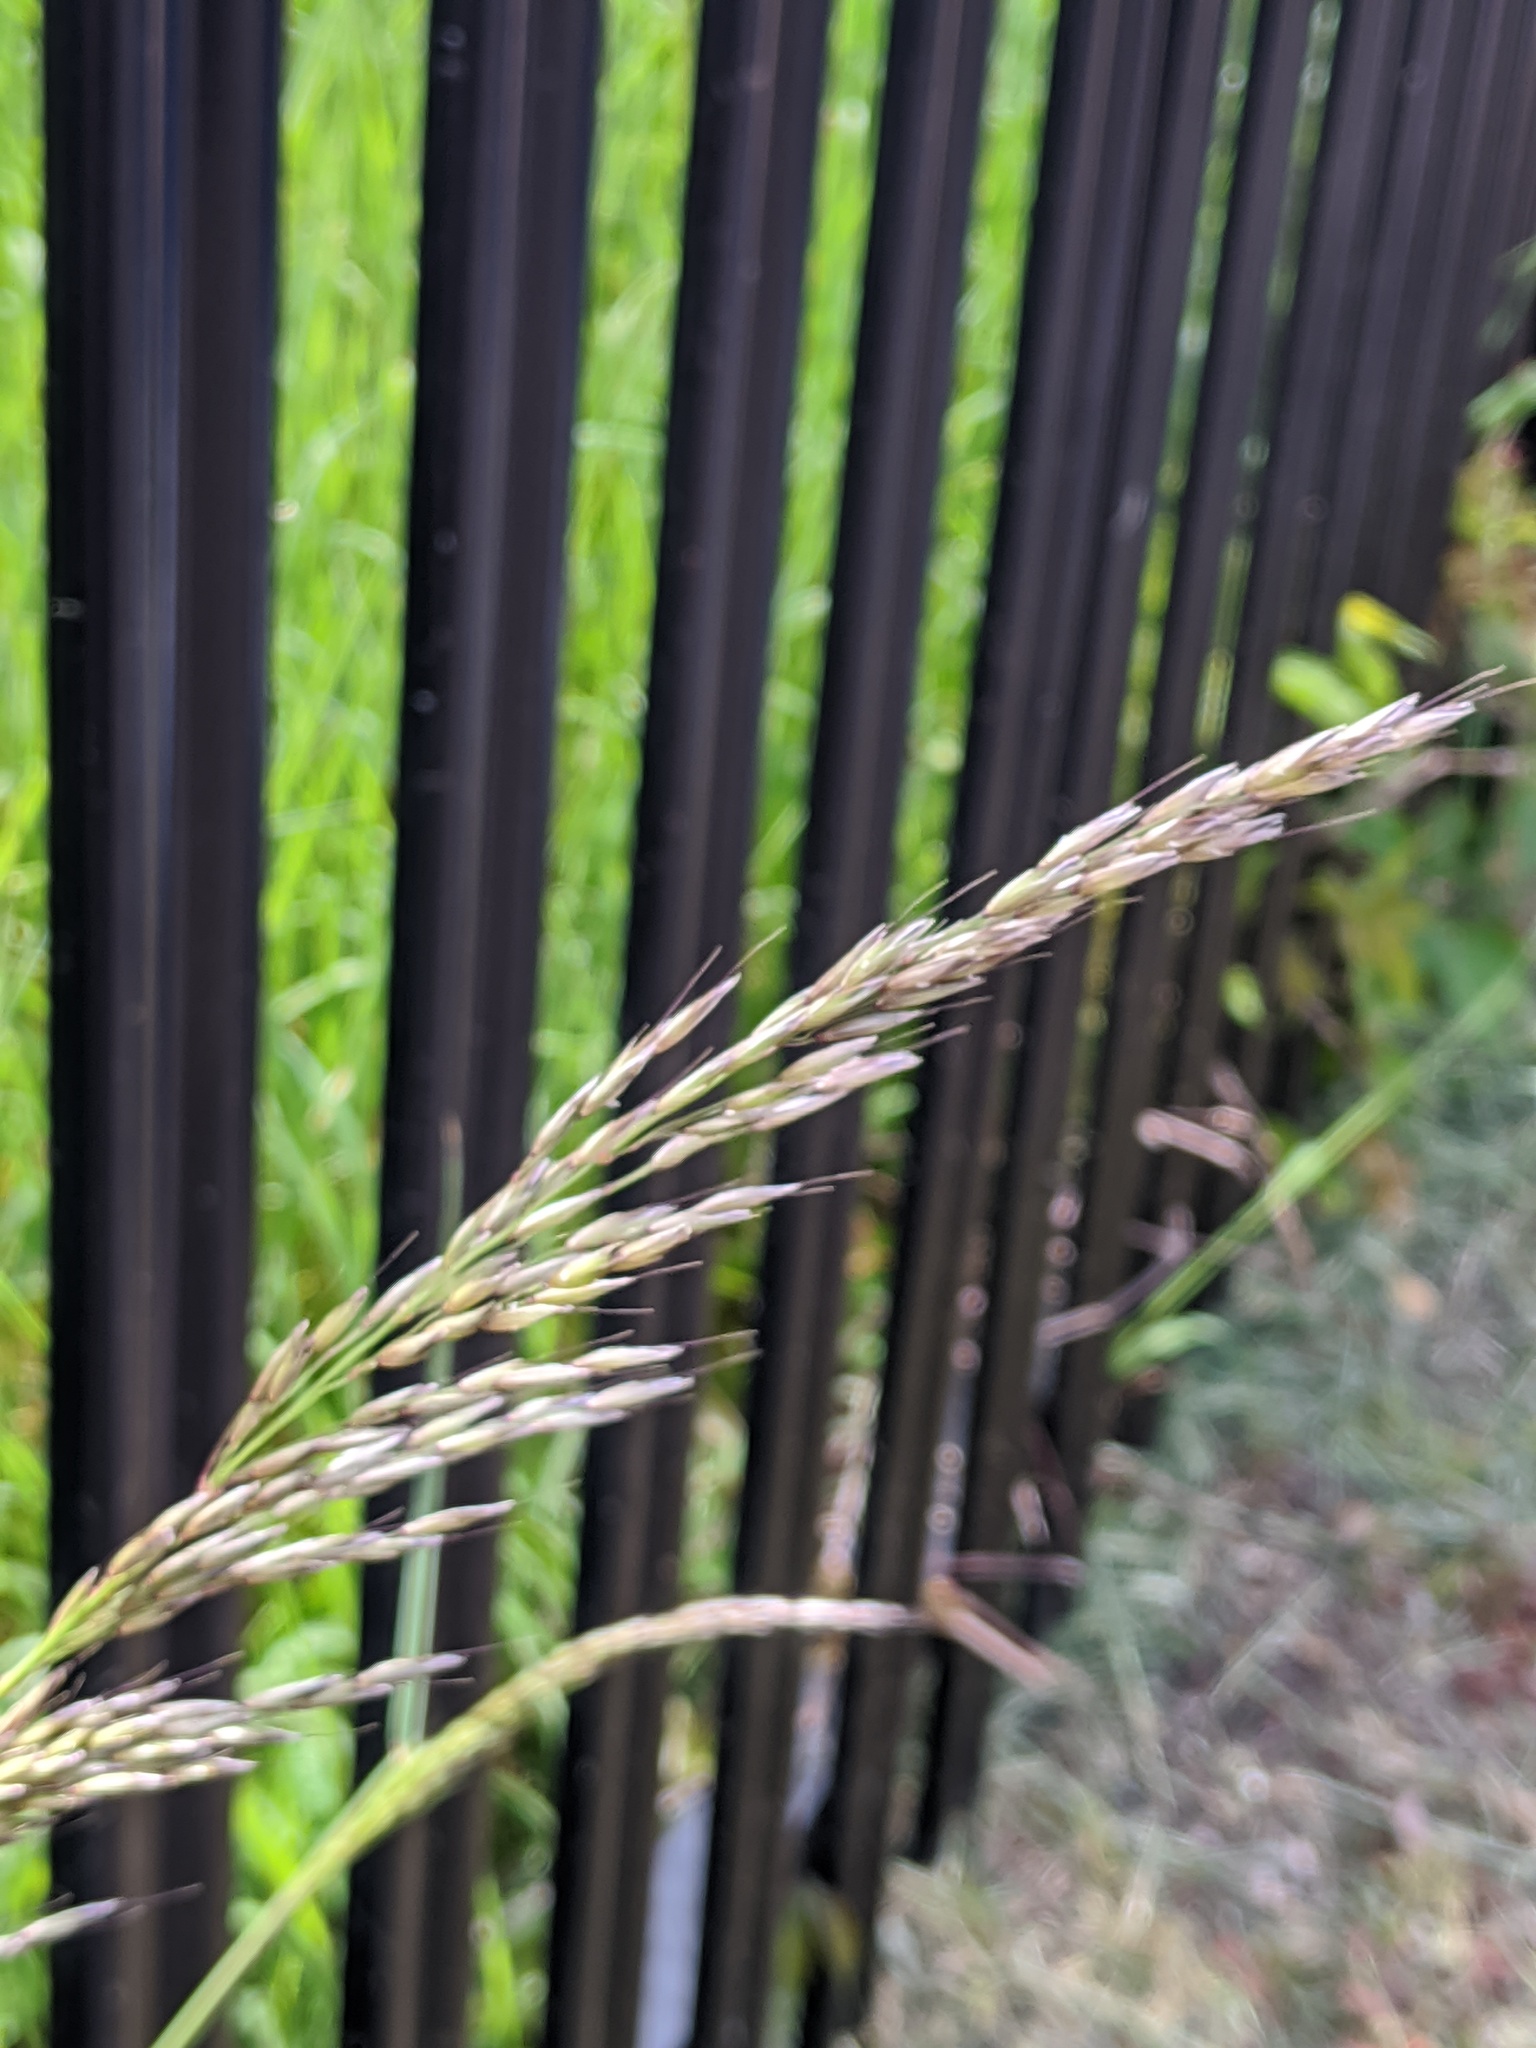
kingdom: Plantae
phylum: Tracheophyta
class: Liliopsida
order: Poales
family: Poaceae
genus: Arrhenatherum
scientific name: Arrhenatherum elatius
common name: Tall oatgrass
